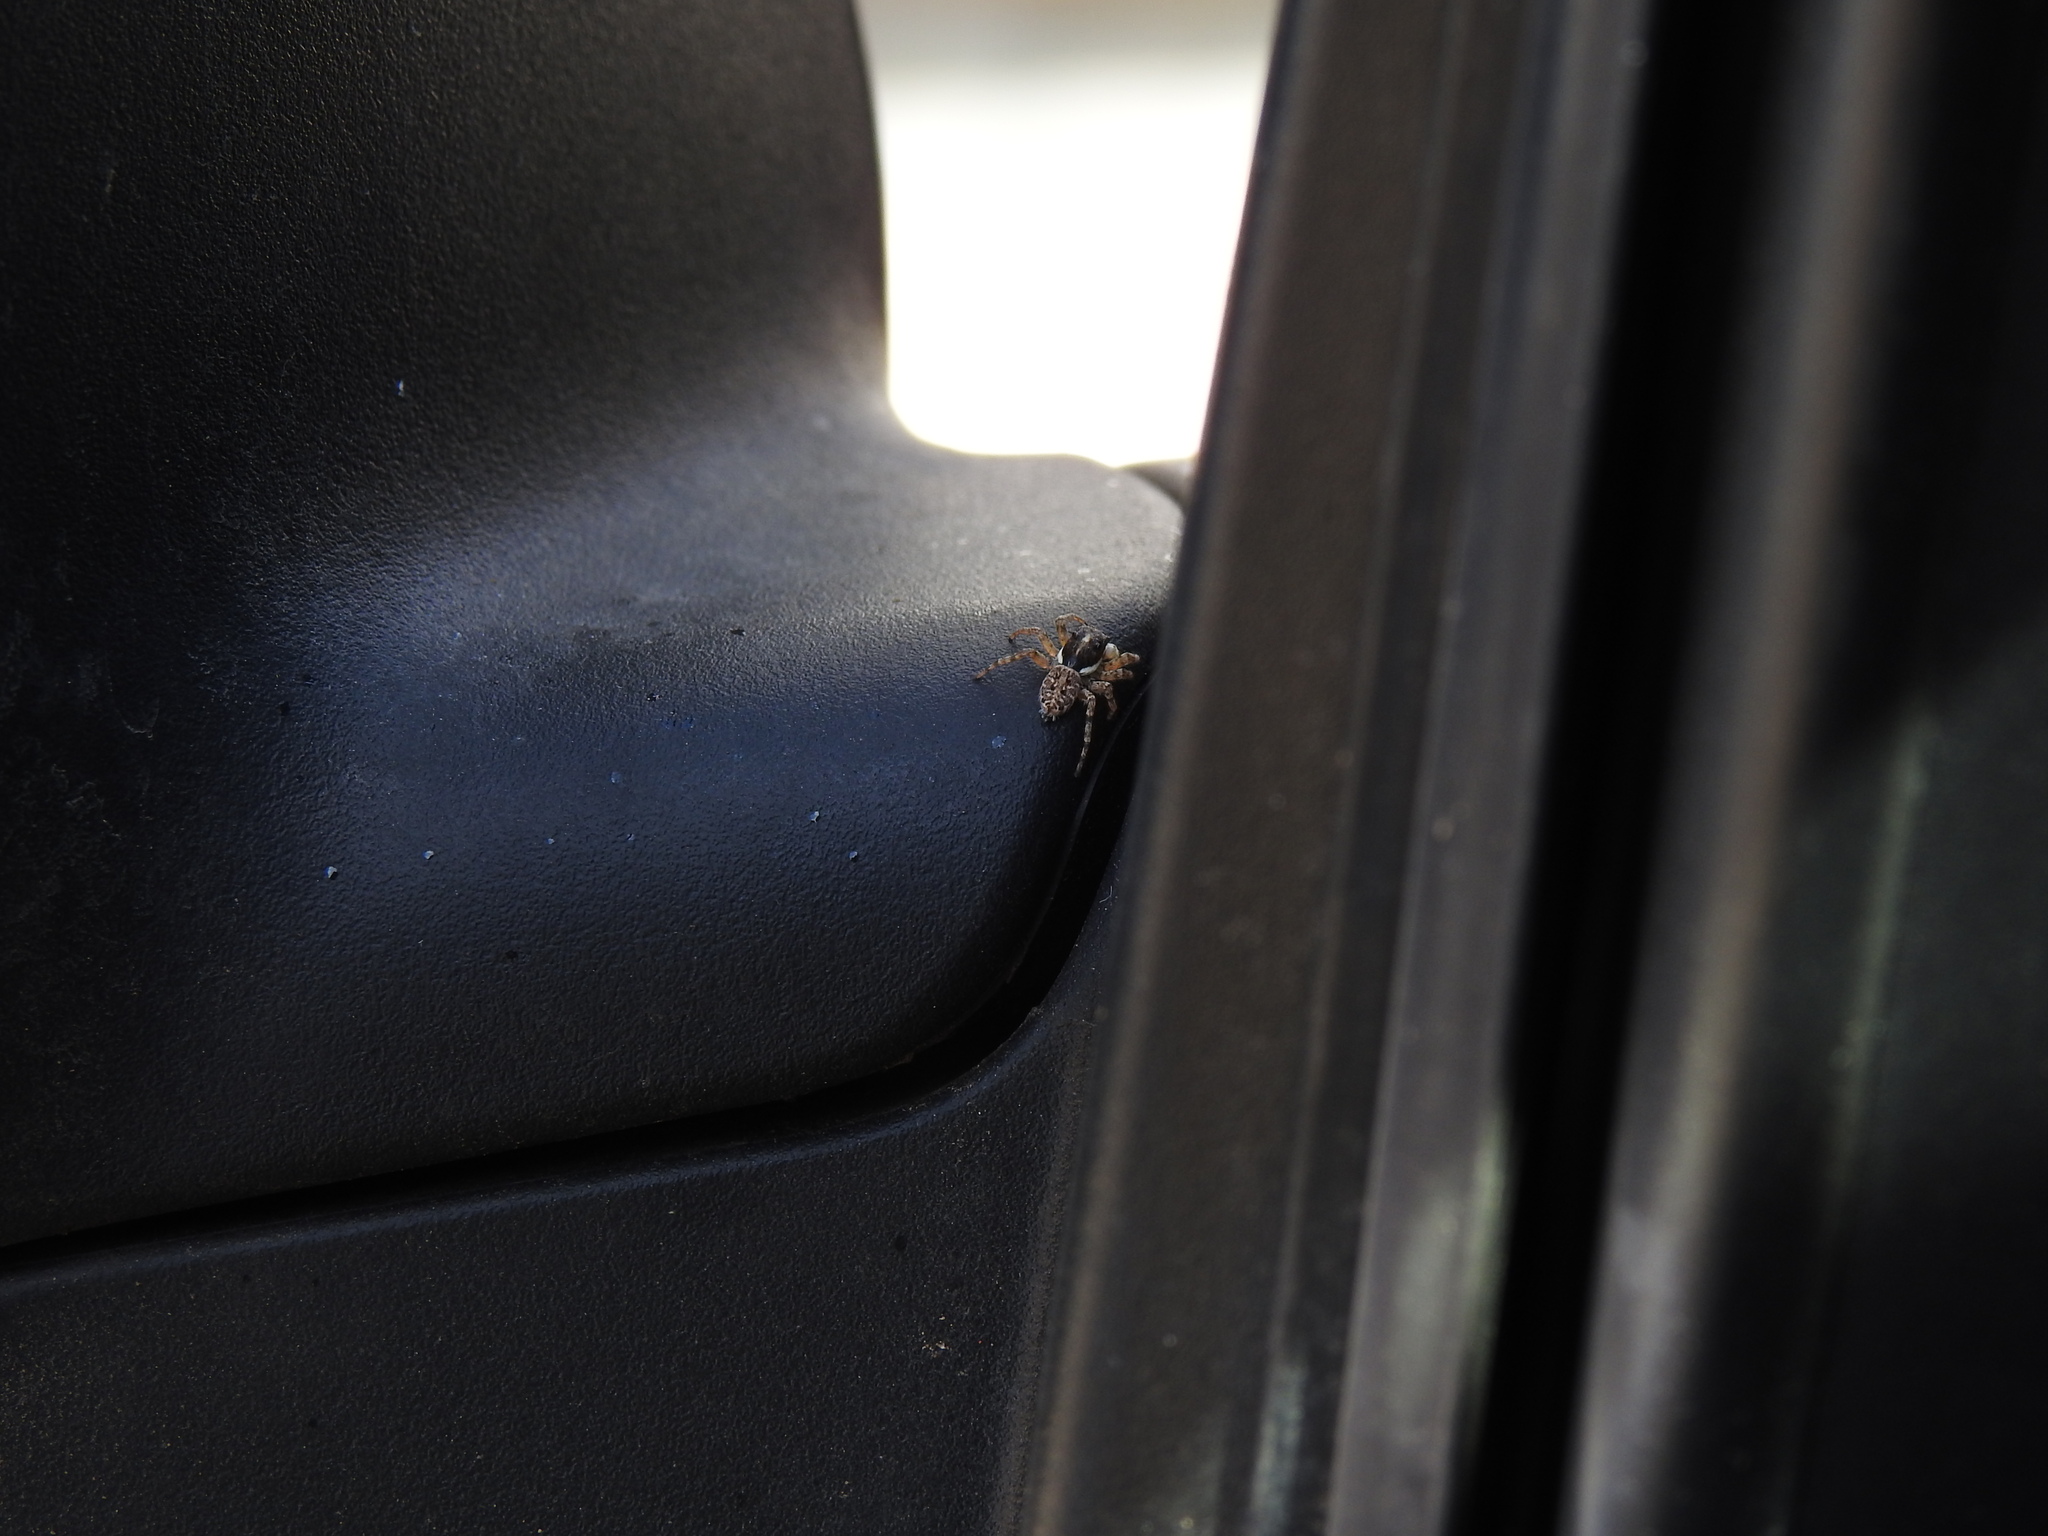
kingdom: Animalia
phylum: Arthropoda
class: Arachnida
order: Araneae
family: Salticidae
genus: Menemerus
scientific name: Menemerus semilimbatus
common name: Jumping spider
